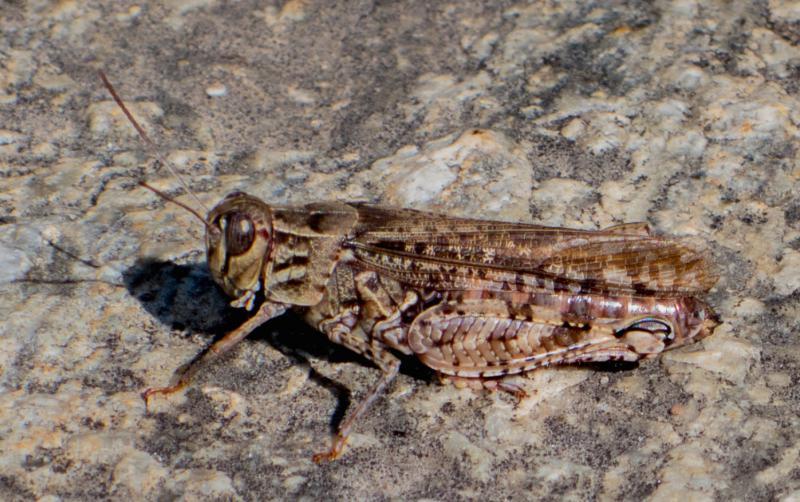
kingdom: Animalia
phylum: Arthropoda
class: Insecta
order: Orthoptera
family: Acrididae
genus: Calliptamus
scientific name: Calliptamus italicus
